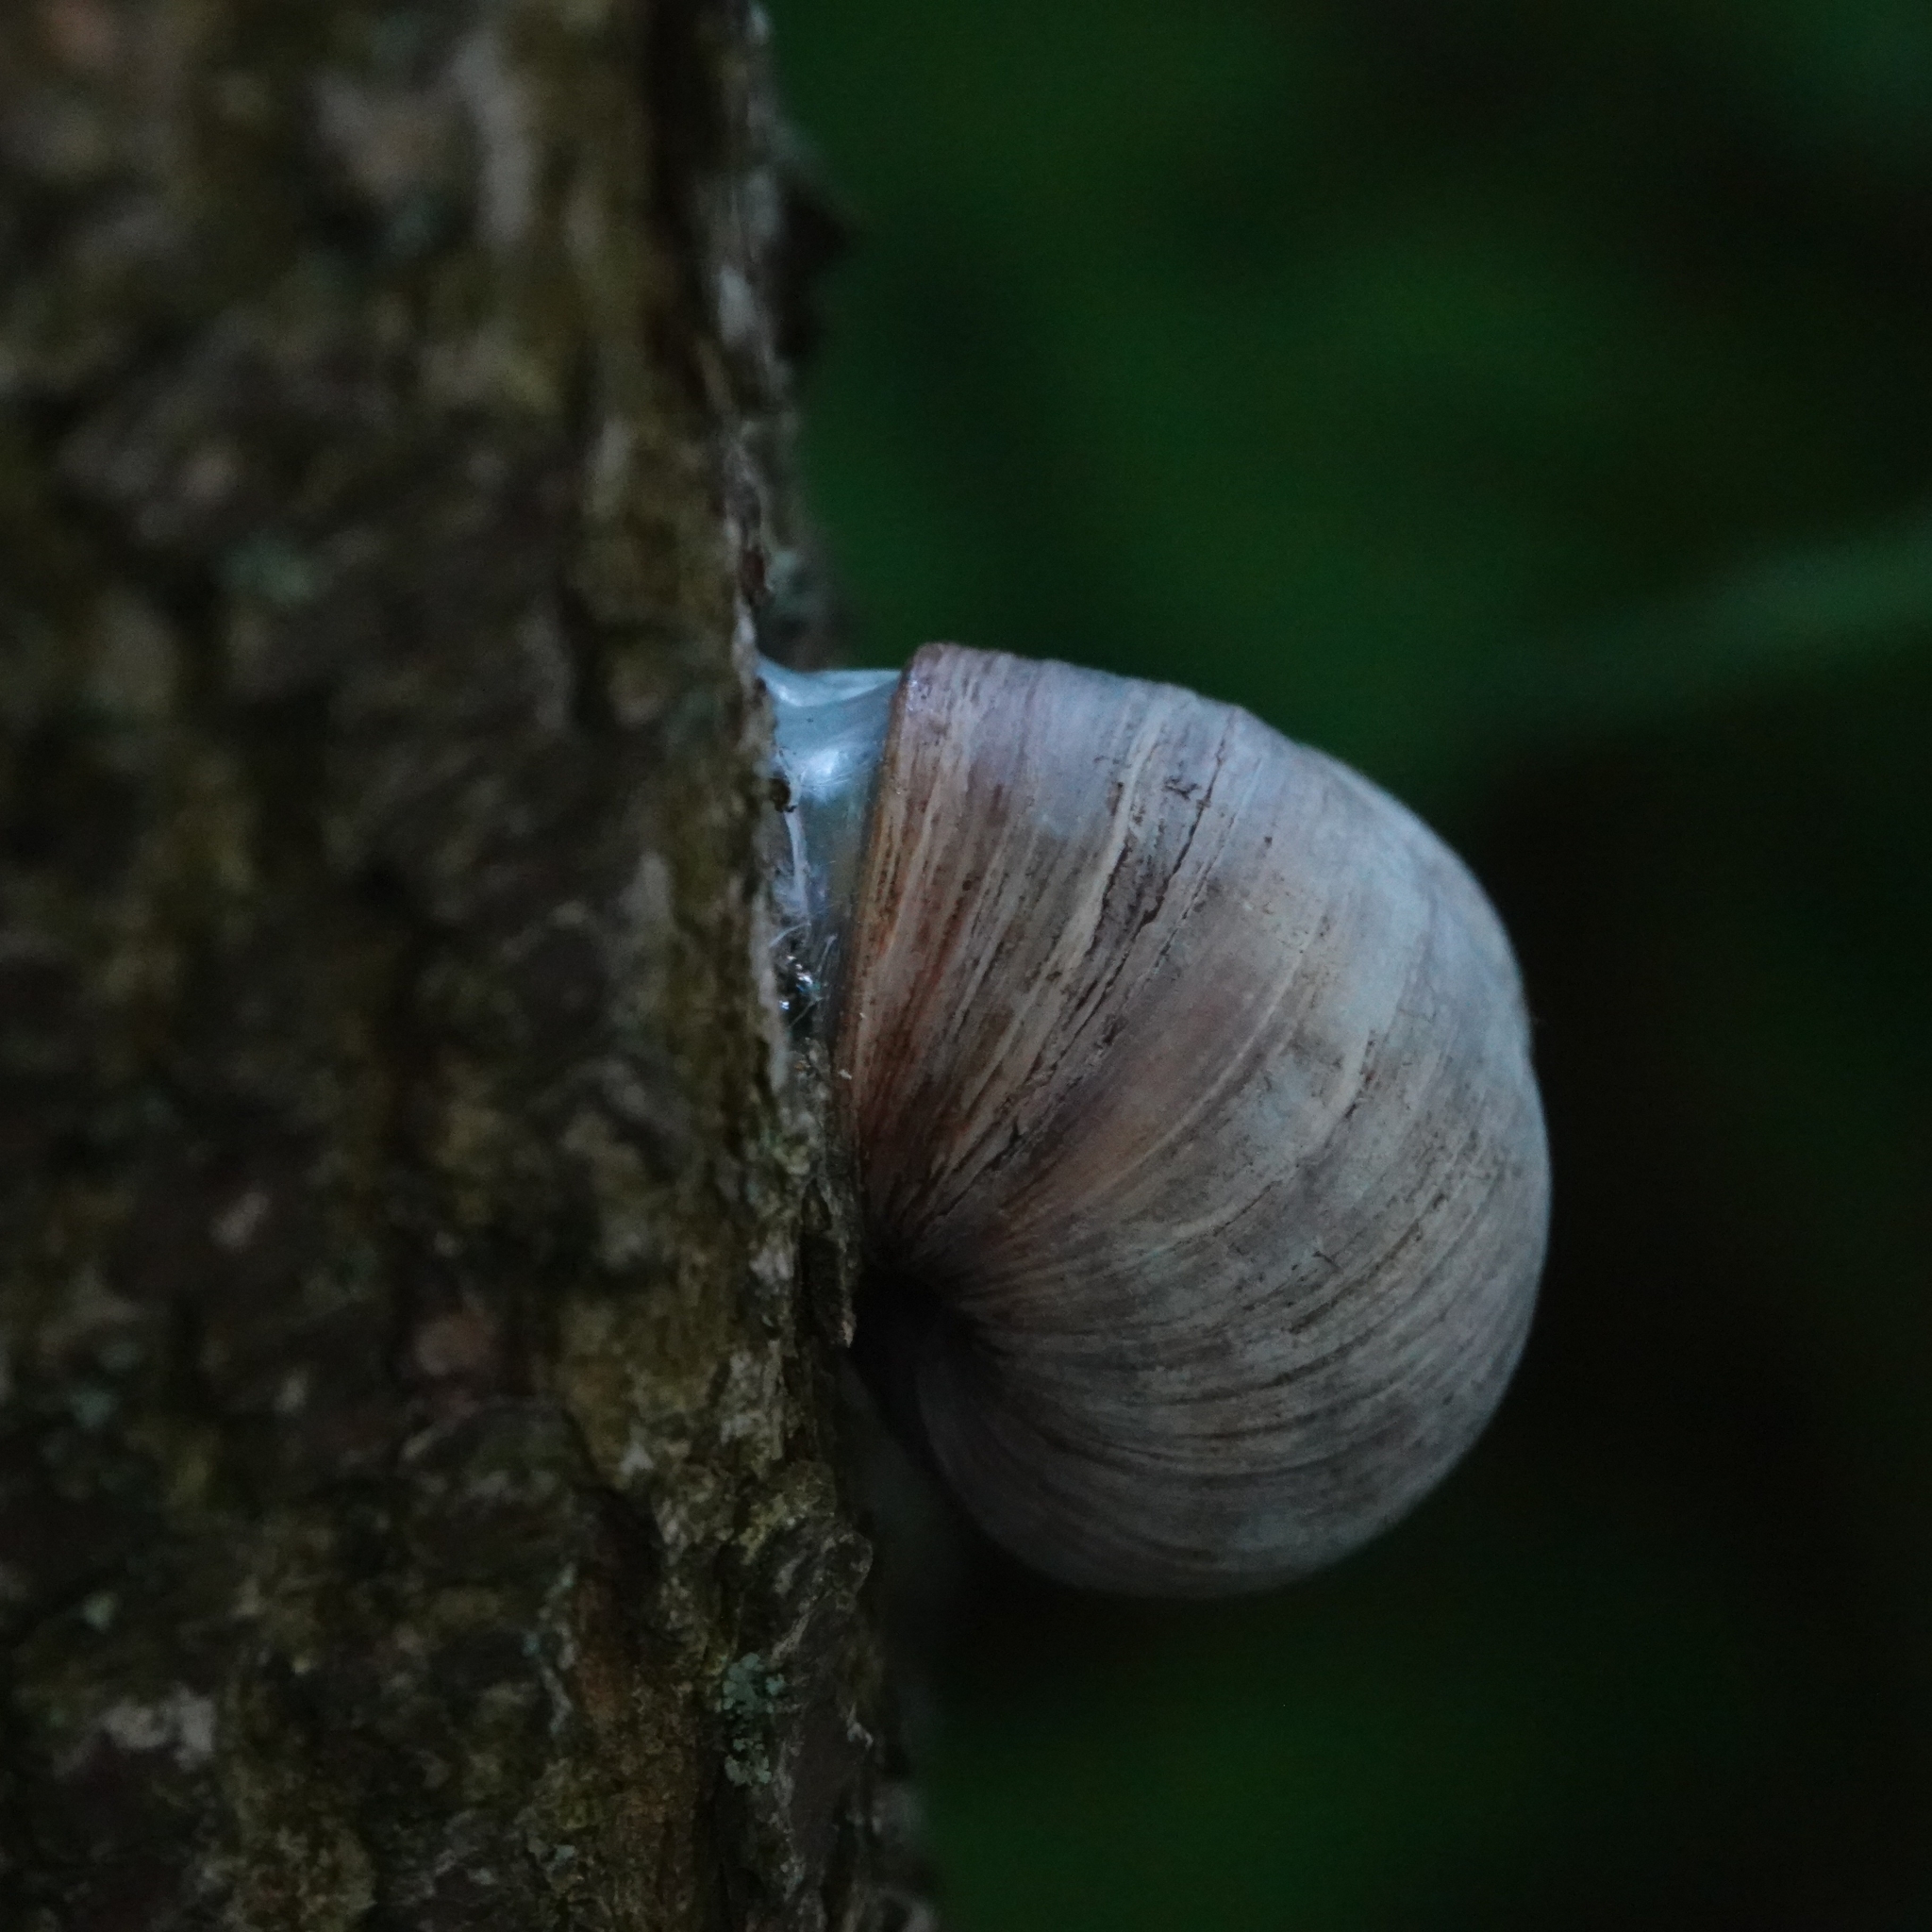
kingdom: Animalia
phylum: Mollusca
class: Gastropoda
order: Stylommatophora
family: Helicidae
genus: Helix
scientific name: Helix pomatia
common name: Roman snail
